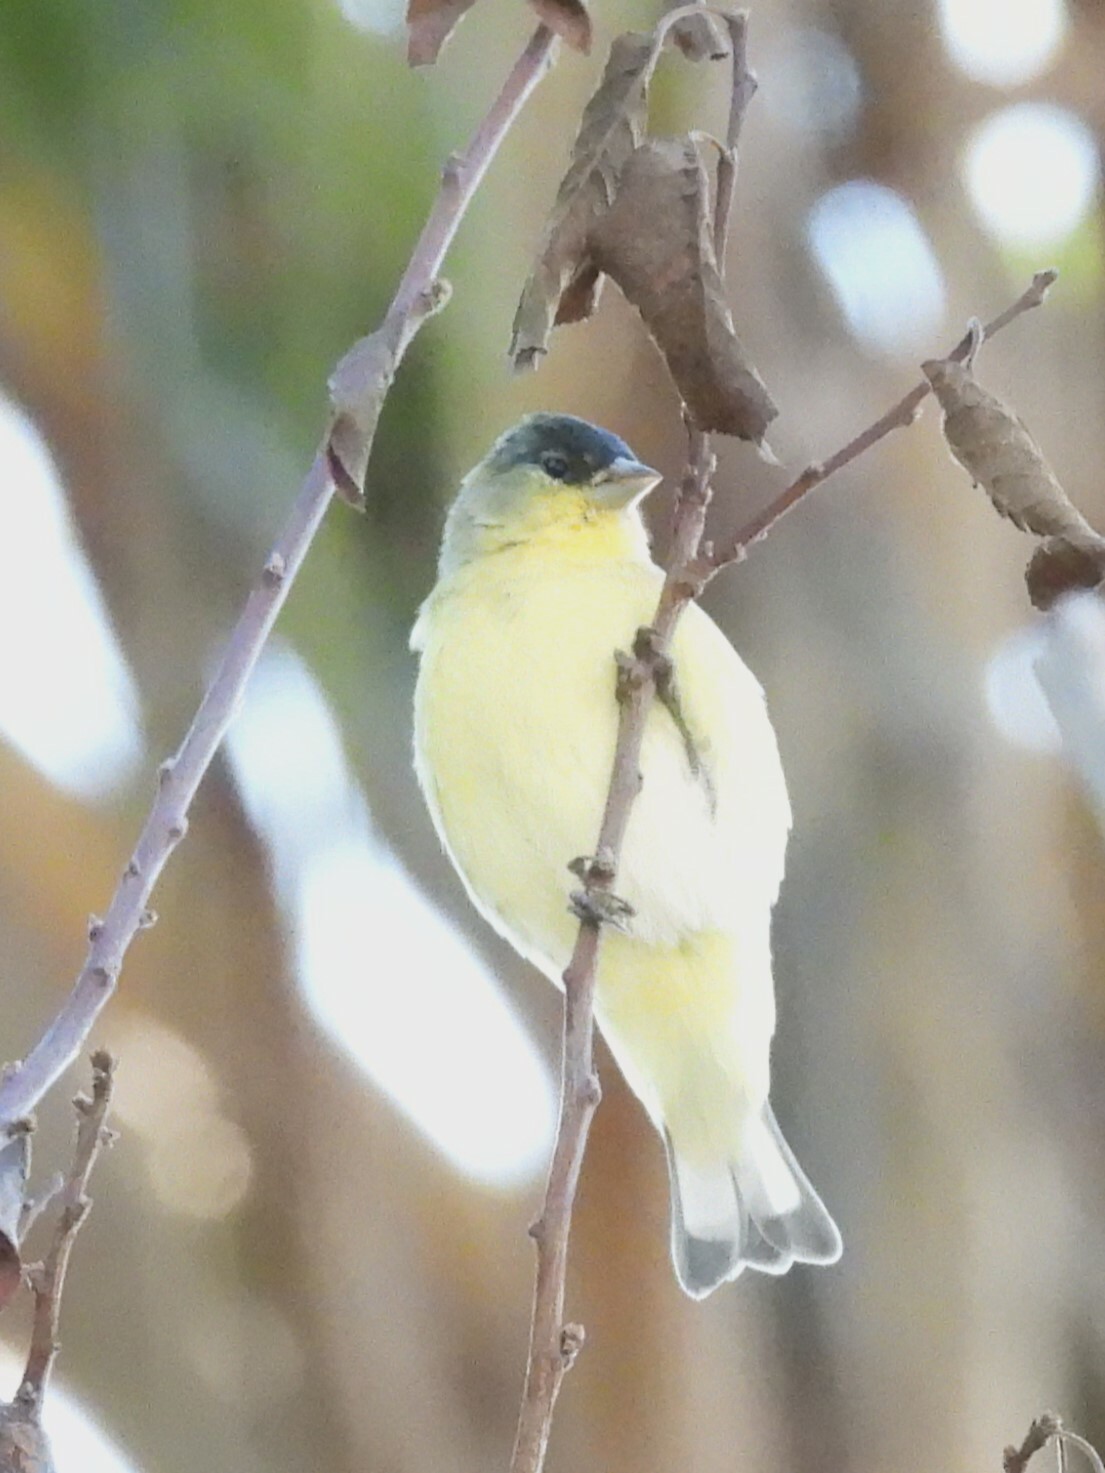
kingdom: Animalia
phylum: Chordata
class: Aves
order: Passeriformes
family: Fringillidae
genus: Spinus
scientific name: Spinus psaltria
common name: Lesser goldfinch
